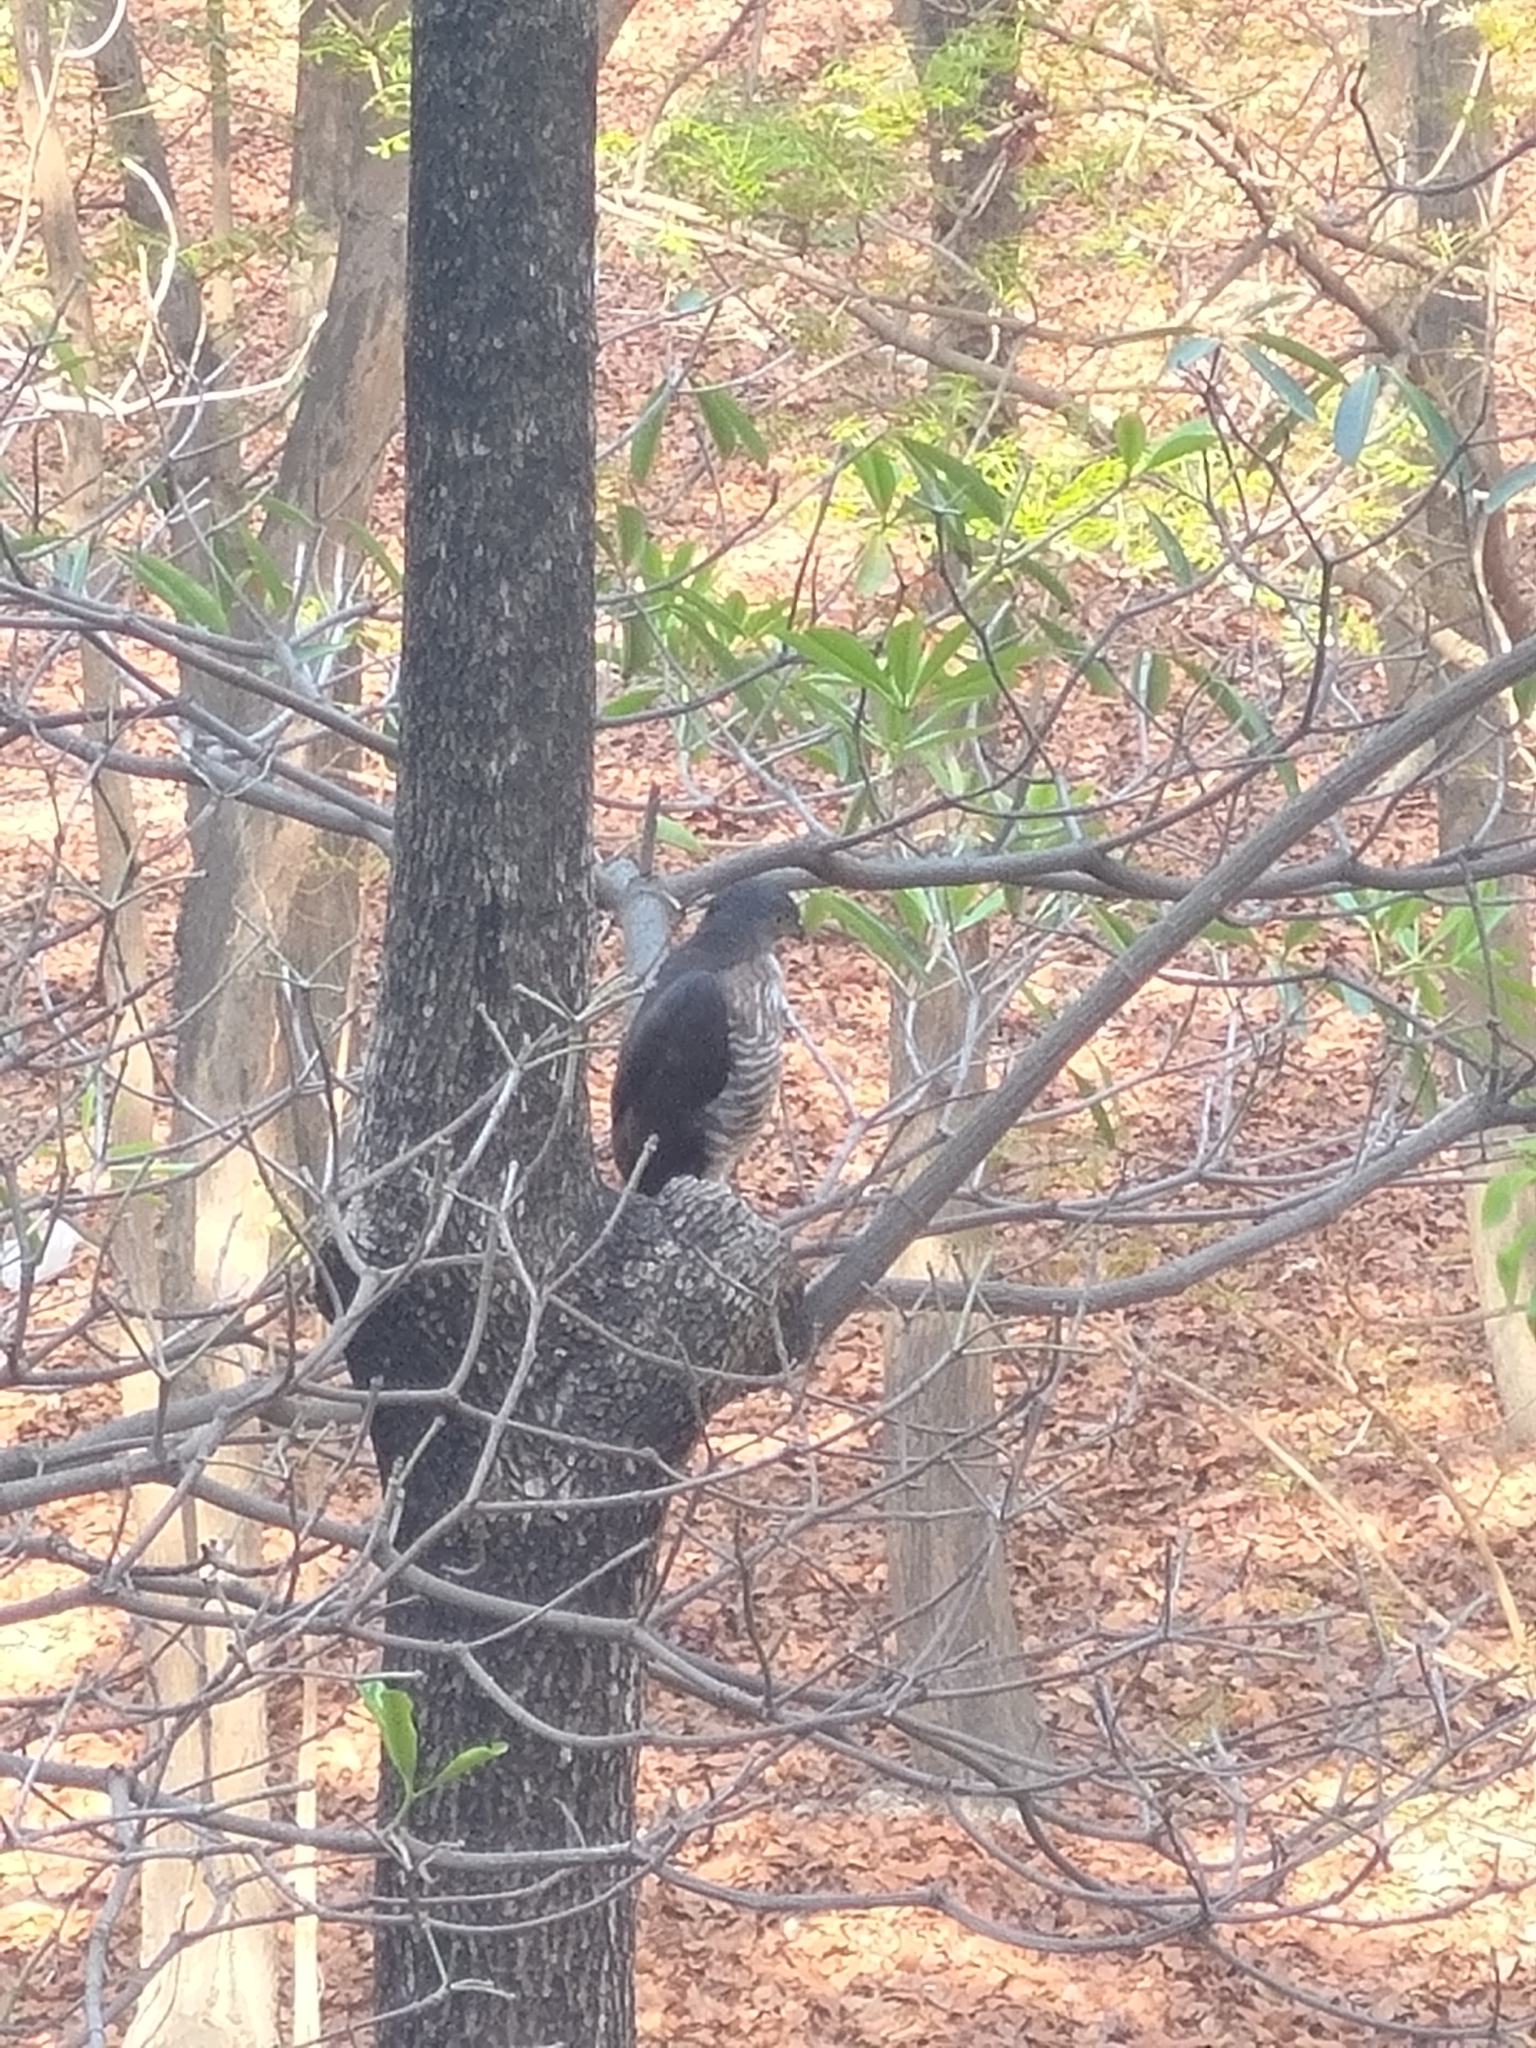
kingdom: Animalia
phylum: Chordata
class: Aves
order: Accipitriformes
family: Accipitridae
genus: Accipiter
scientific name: Accipiter trivirgatus
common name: Crested goshawk
